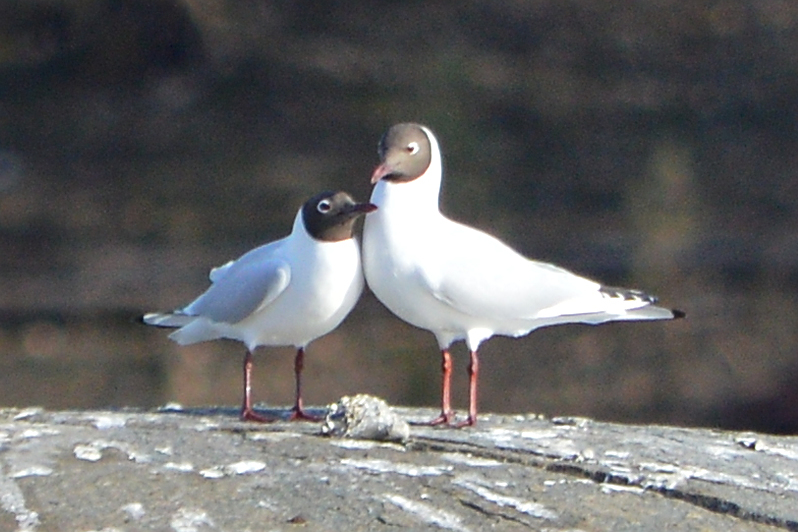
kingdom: Animalia
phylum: Chordata
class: Aves
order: Charadriiformes
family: Laridae
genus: Chroicocephalus
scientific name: Chroicocephalus ridibundus
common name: Black-headed gull
